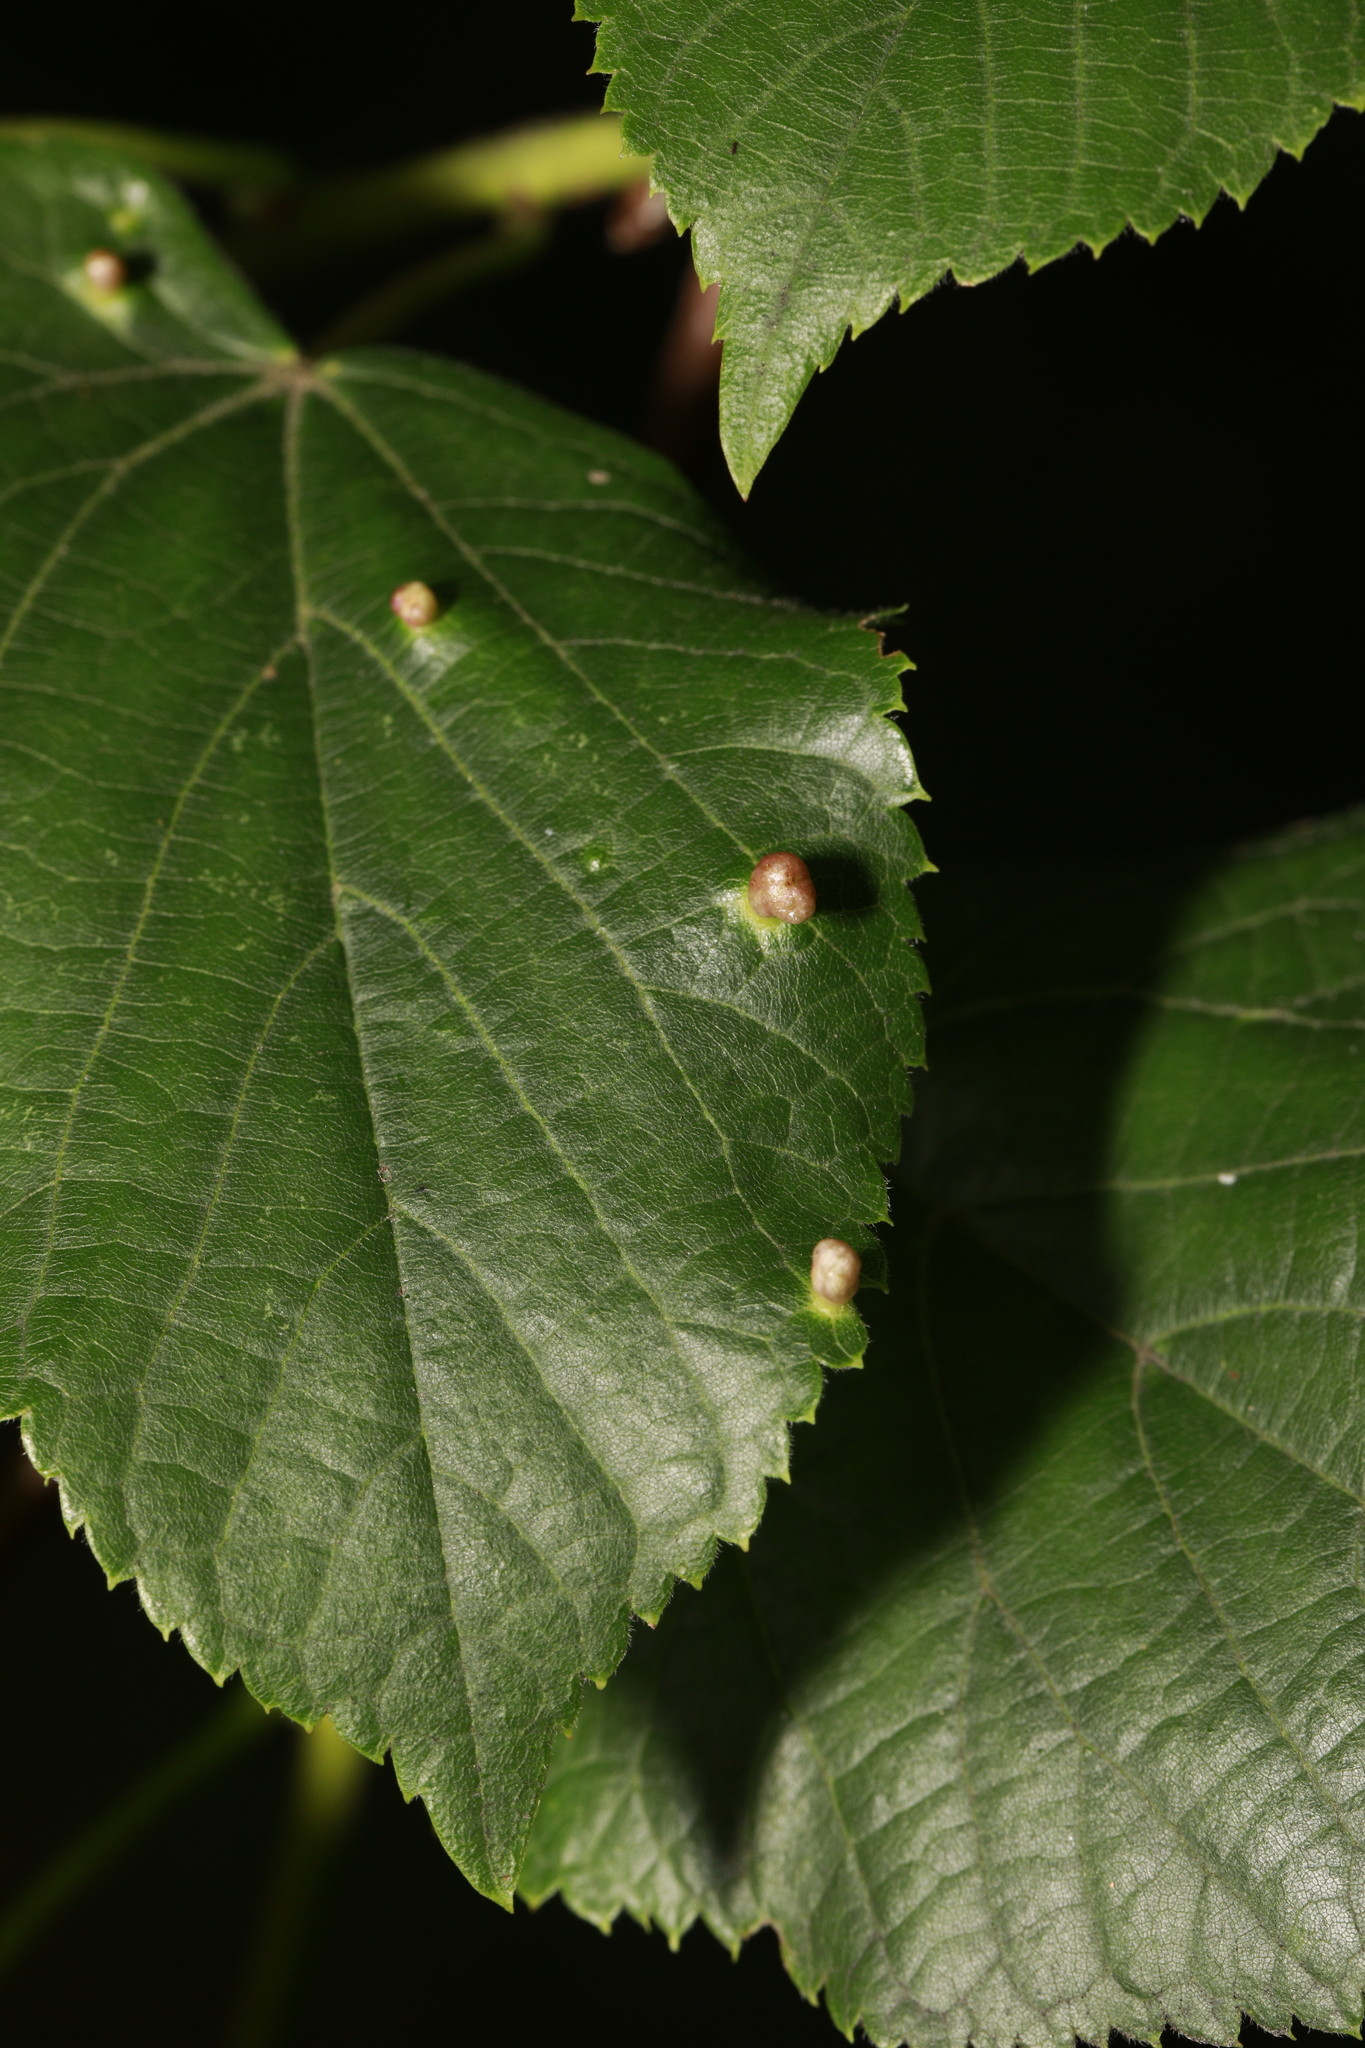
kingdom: Animalia
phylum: Arthropoda
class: Arachnida
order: Trombidiformes
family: Phytoptidae
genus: Phytoptus
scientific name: Phytoptus stenoporus
